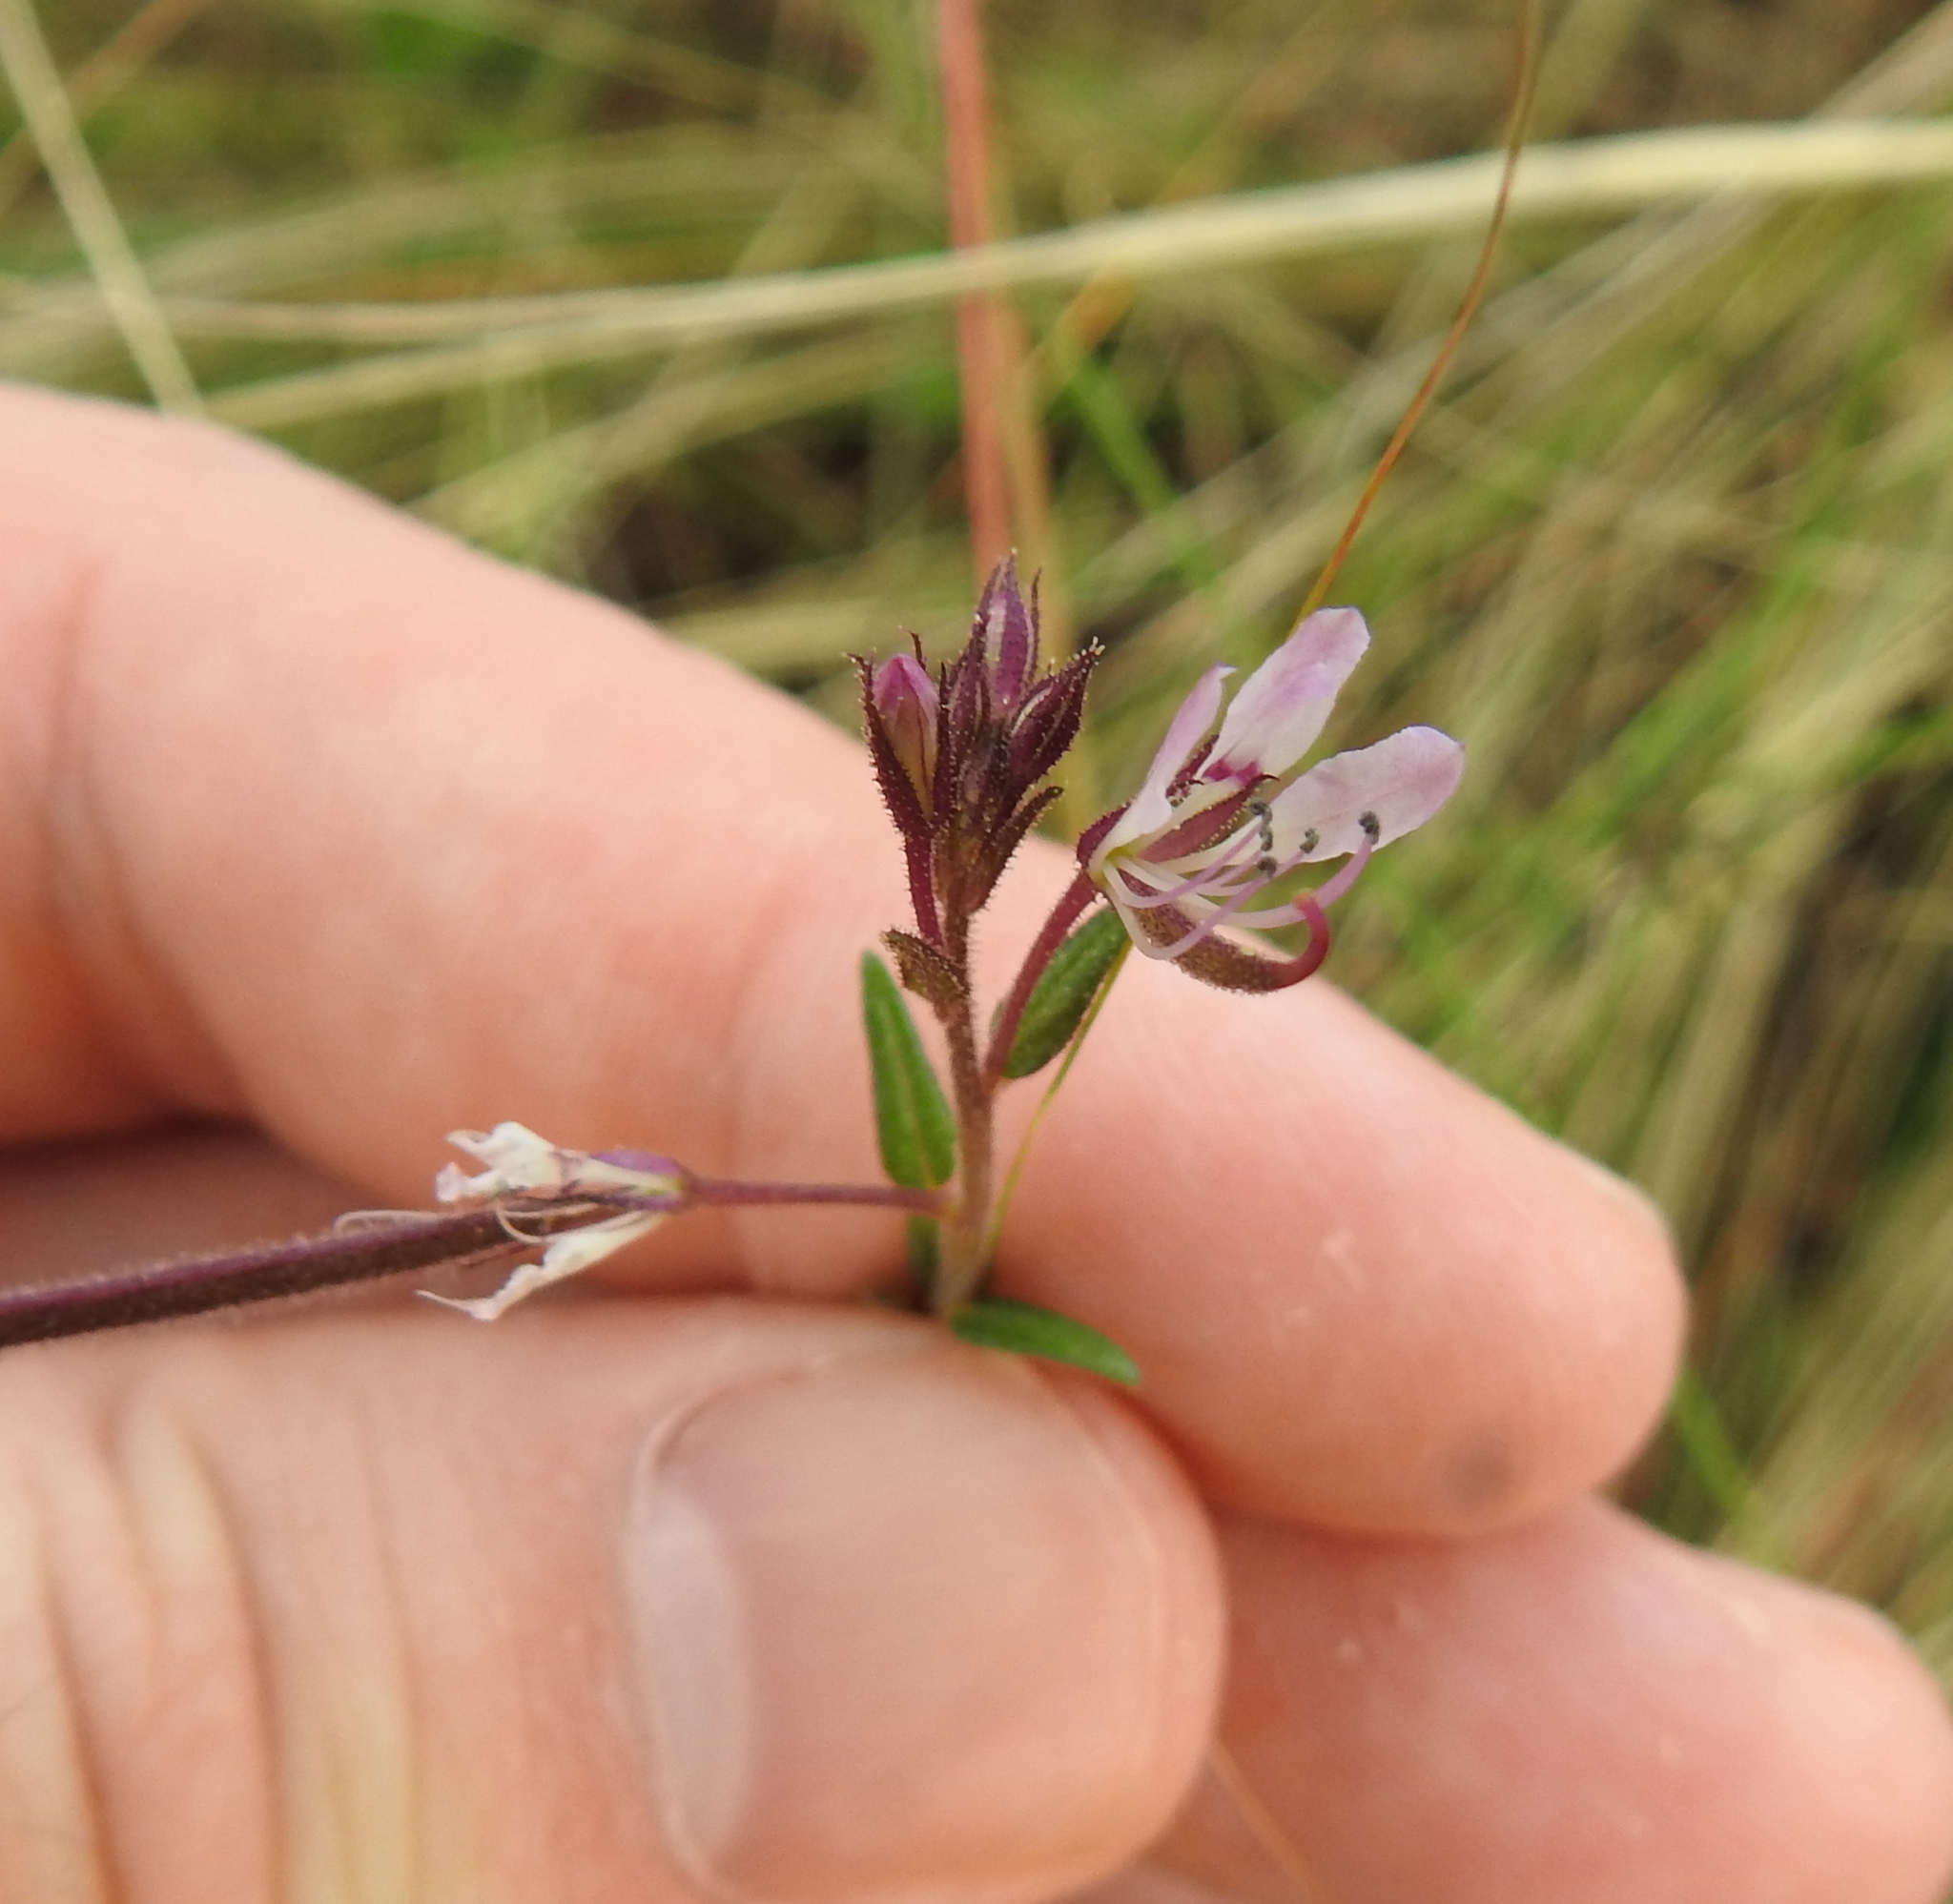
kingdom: Plantae
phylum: Tracheophyta
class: Magnoliopsida
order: Brassicales
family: Cleomaceae
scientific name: Cleomaceae
